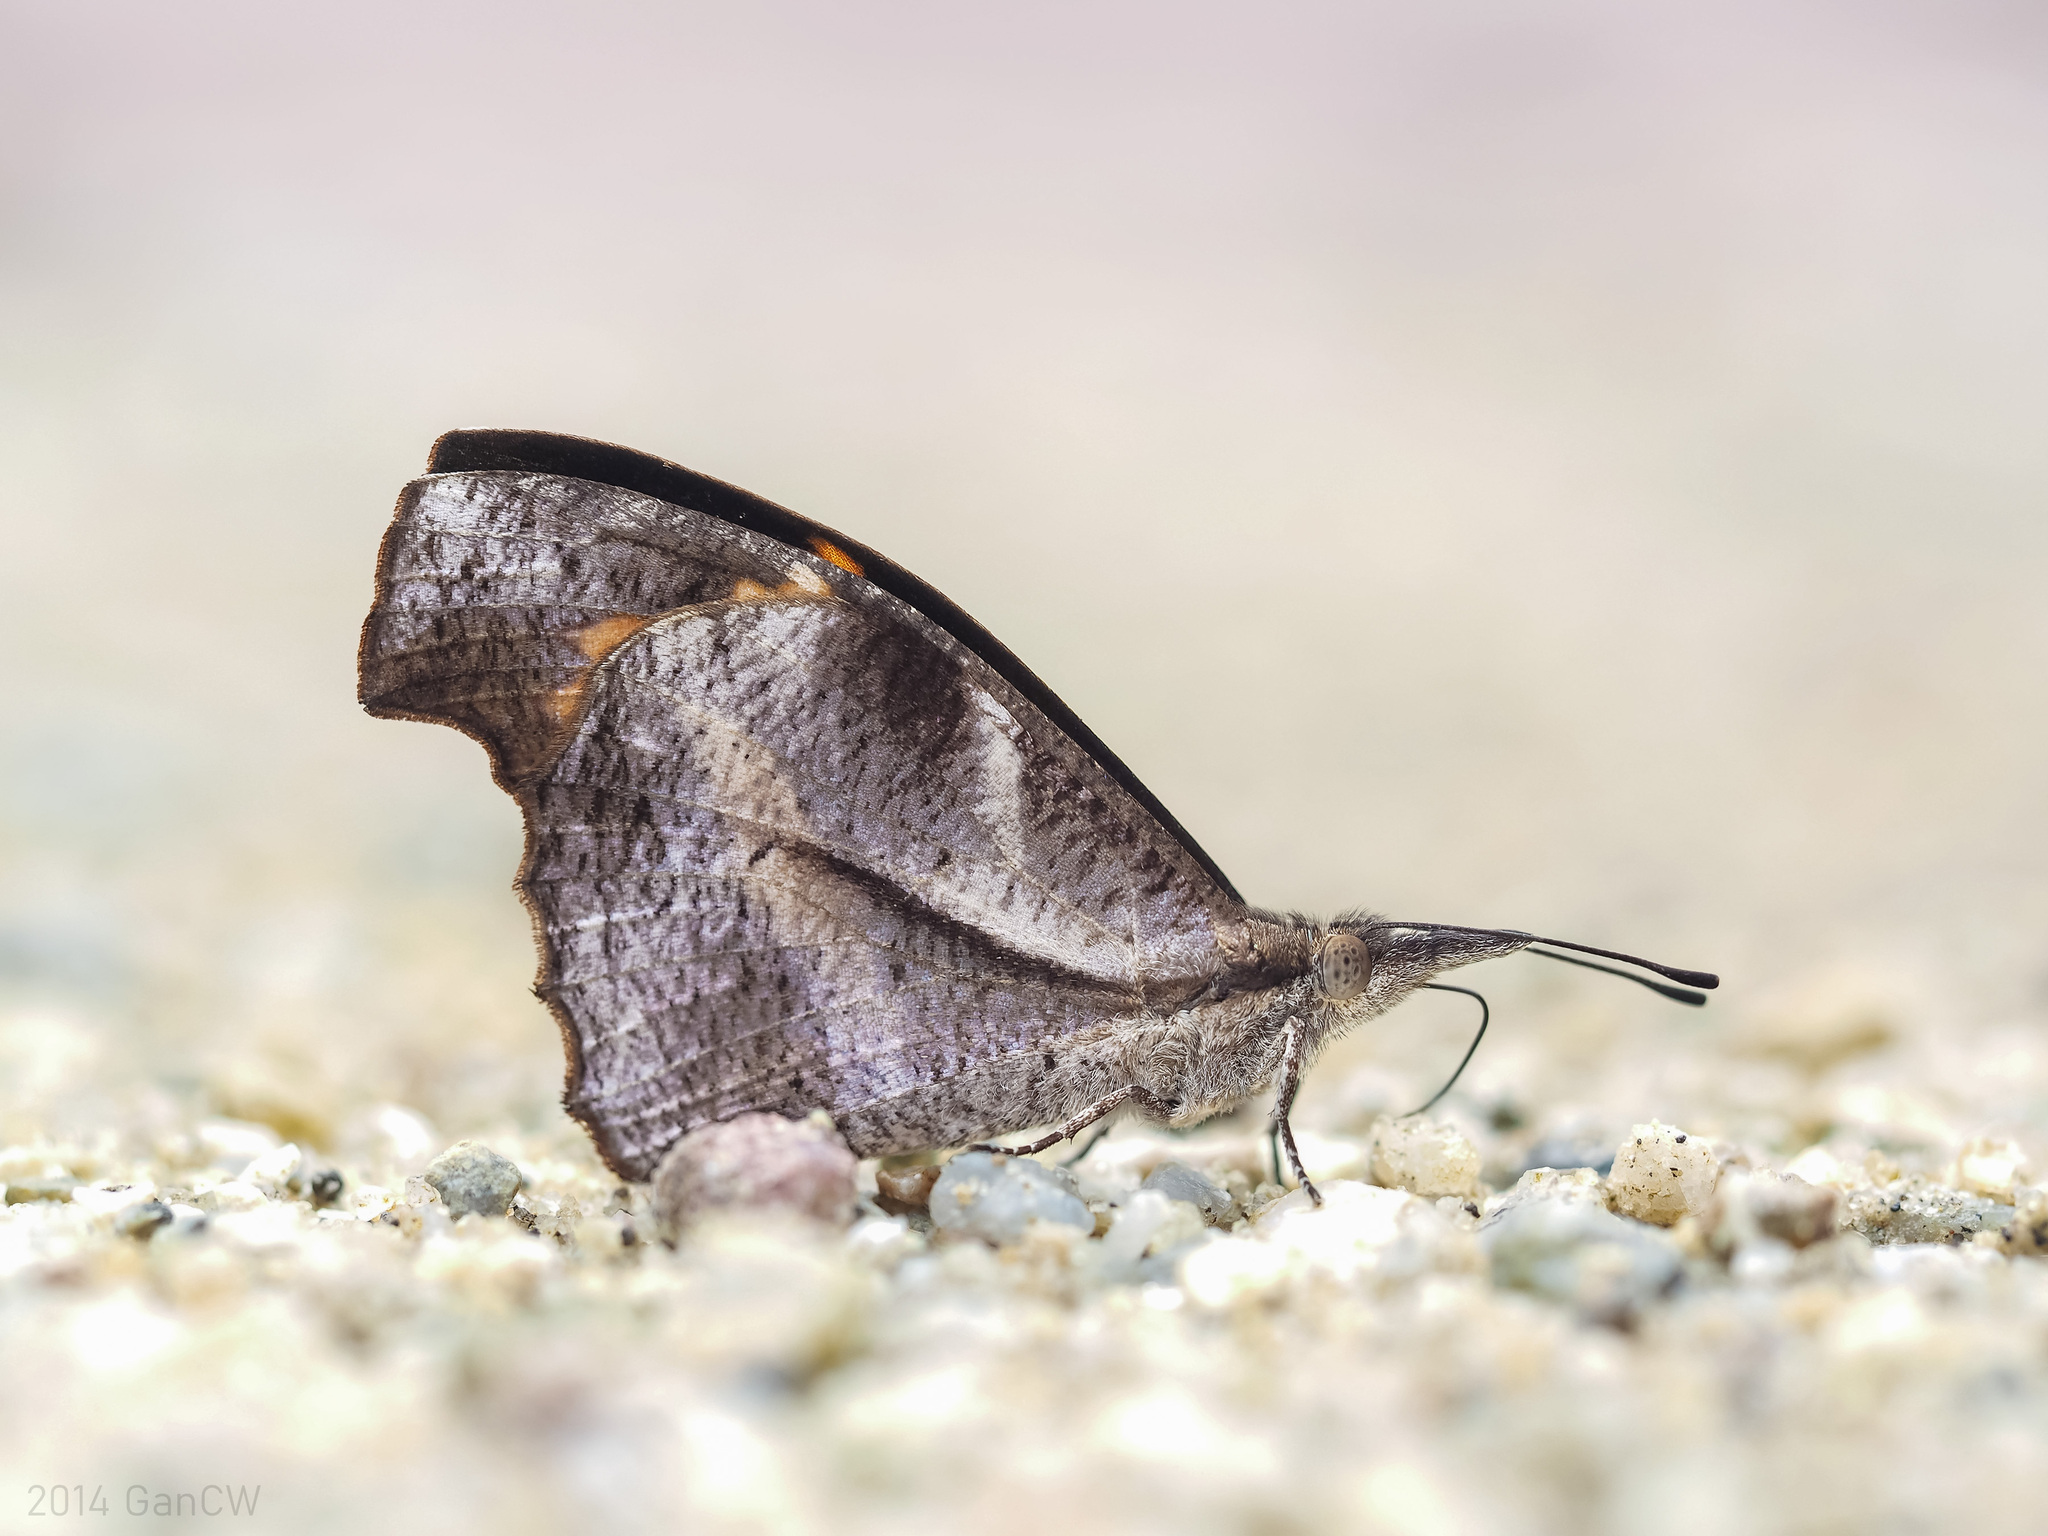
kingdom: Animalia
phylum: Arthropoda
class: Insecta
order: Lepidoptera
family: Nymphalidae
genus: Libythea
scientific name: Libythea myrrha
